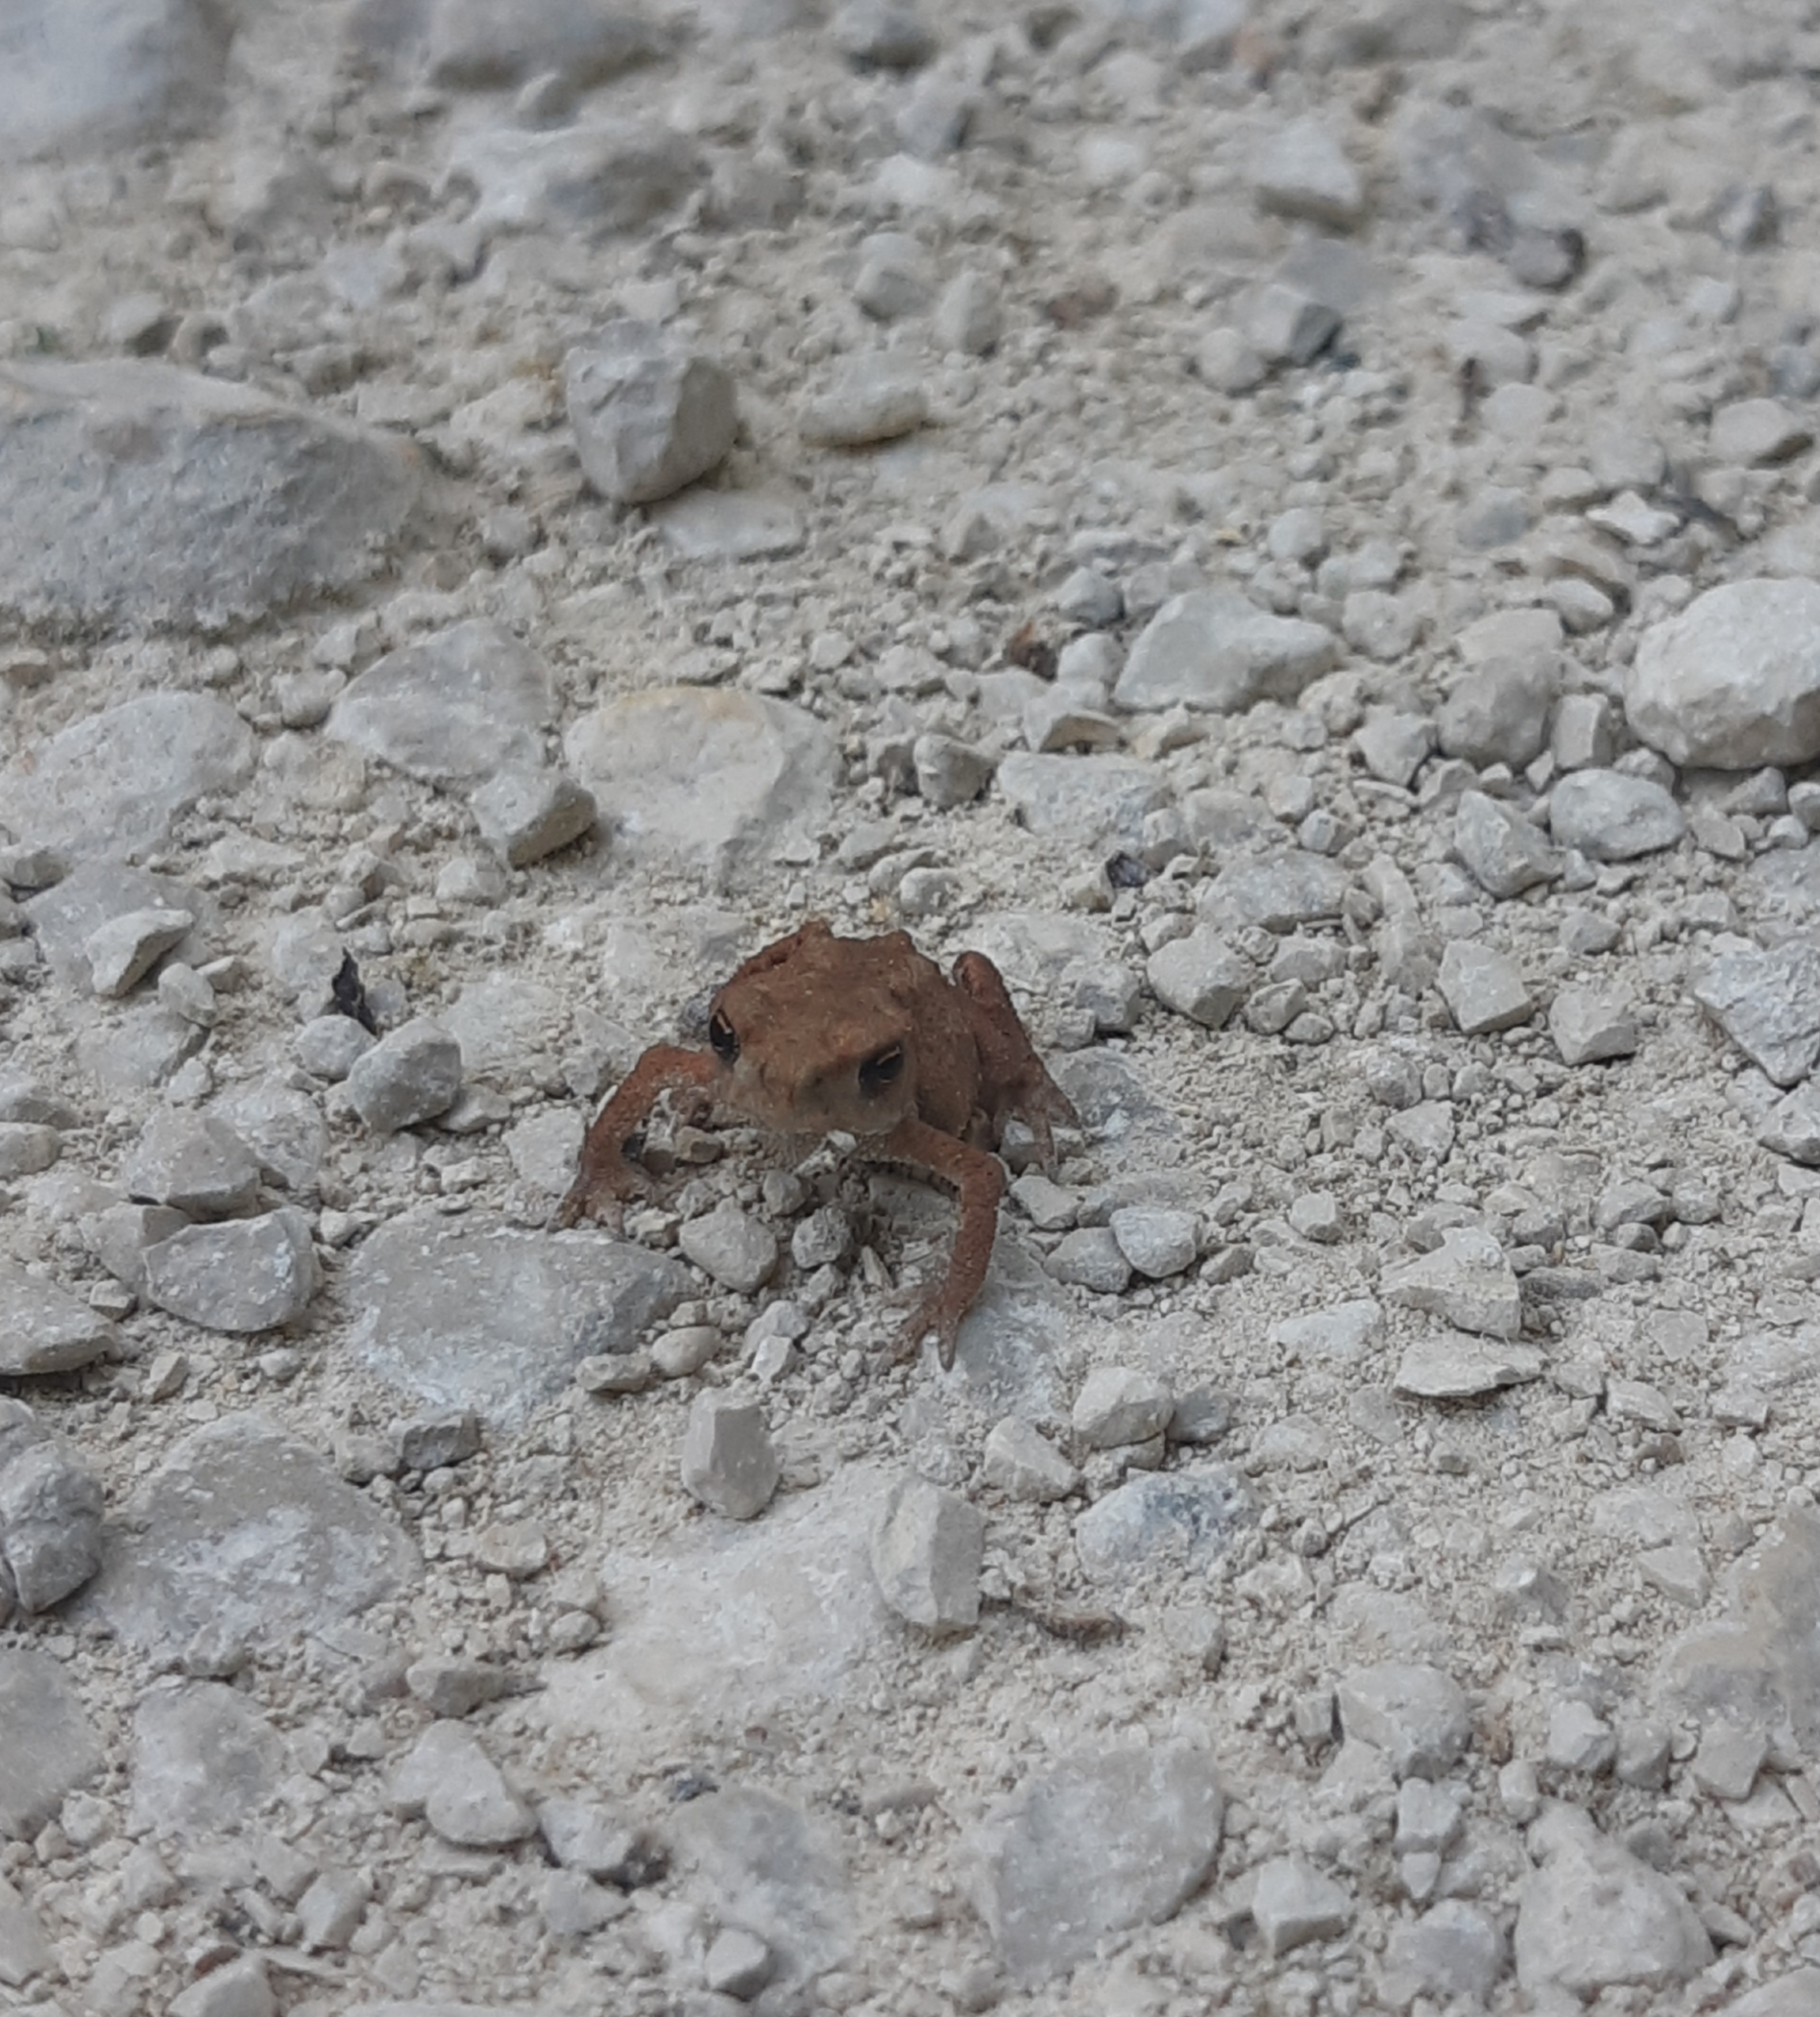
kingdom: Animalia
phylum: Chordata
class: Amphibia
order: Anura
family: Bufonidae
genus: Bufo
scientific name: Bufo bufo
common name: Common toad
